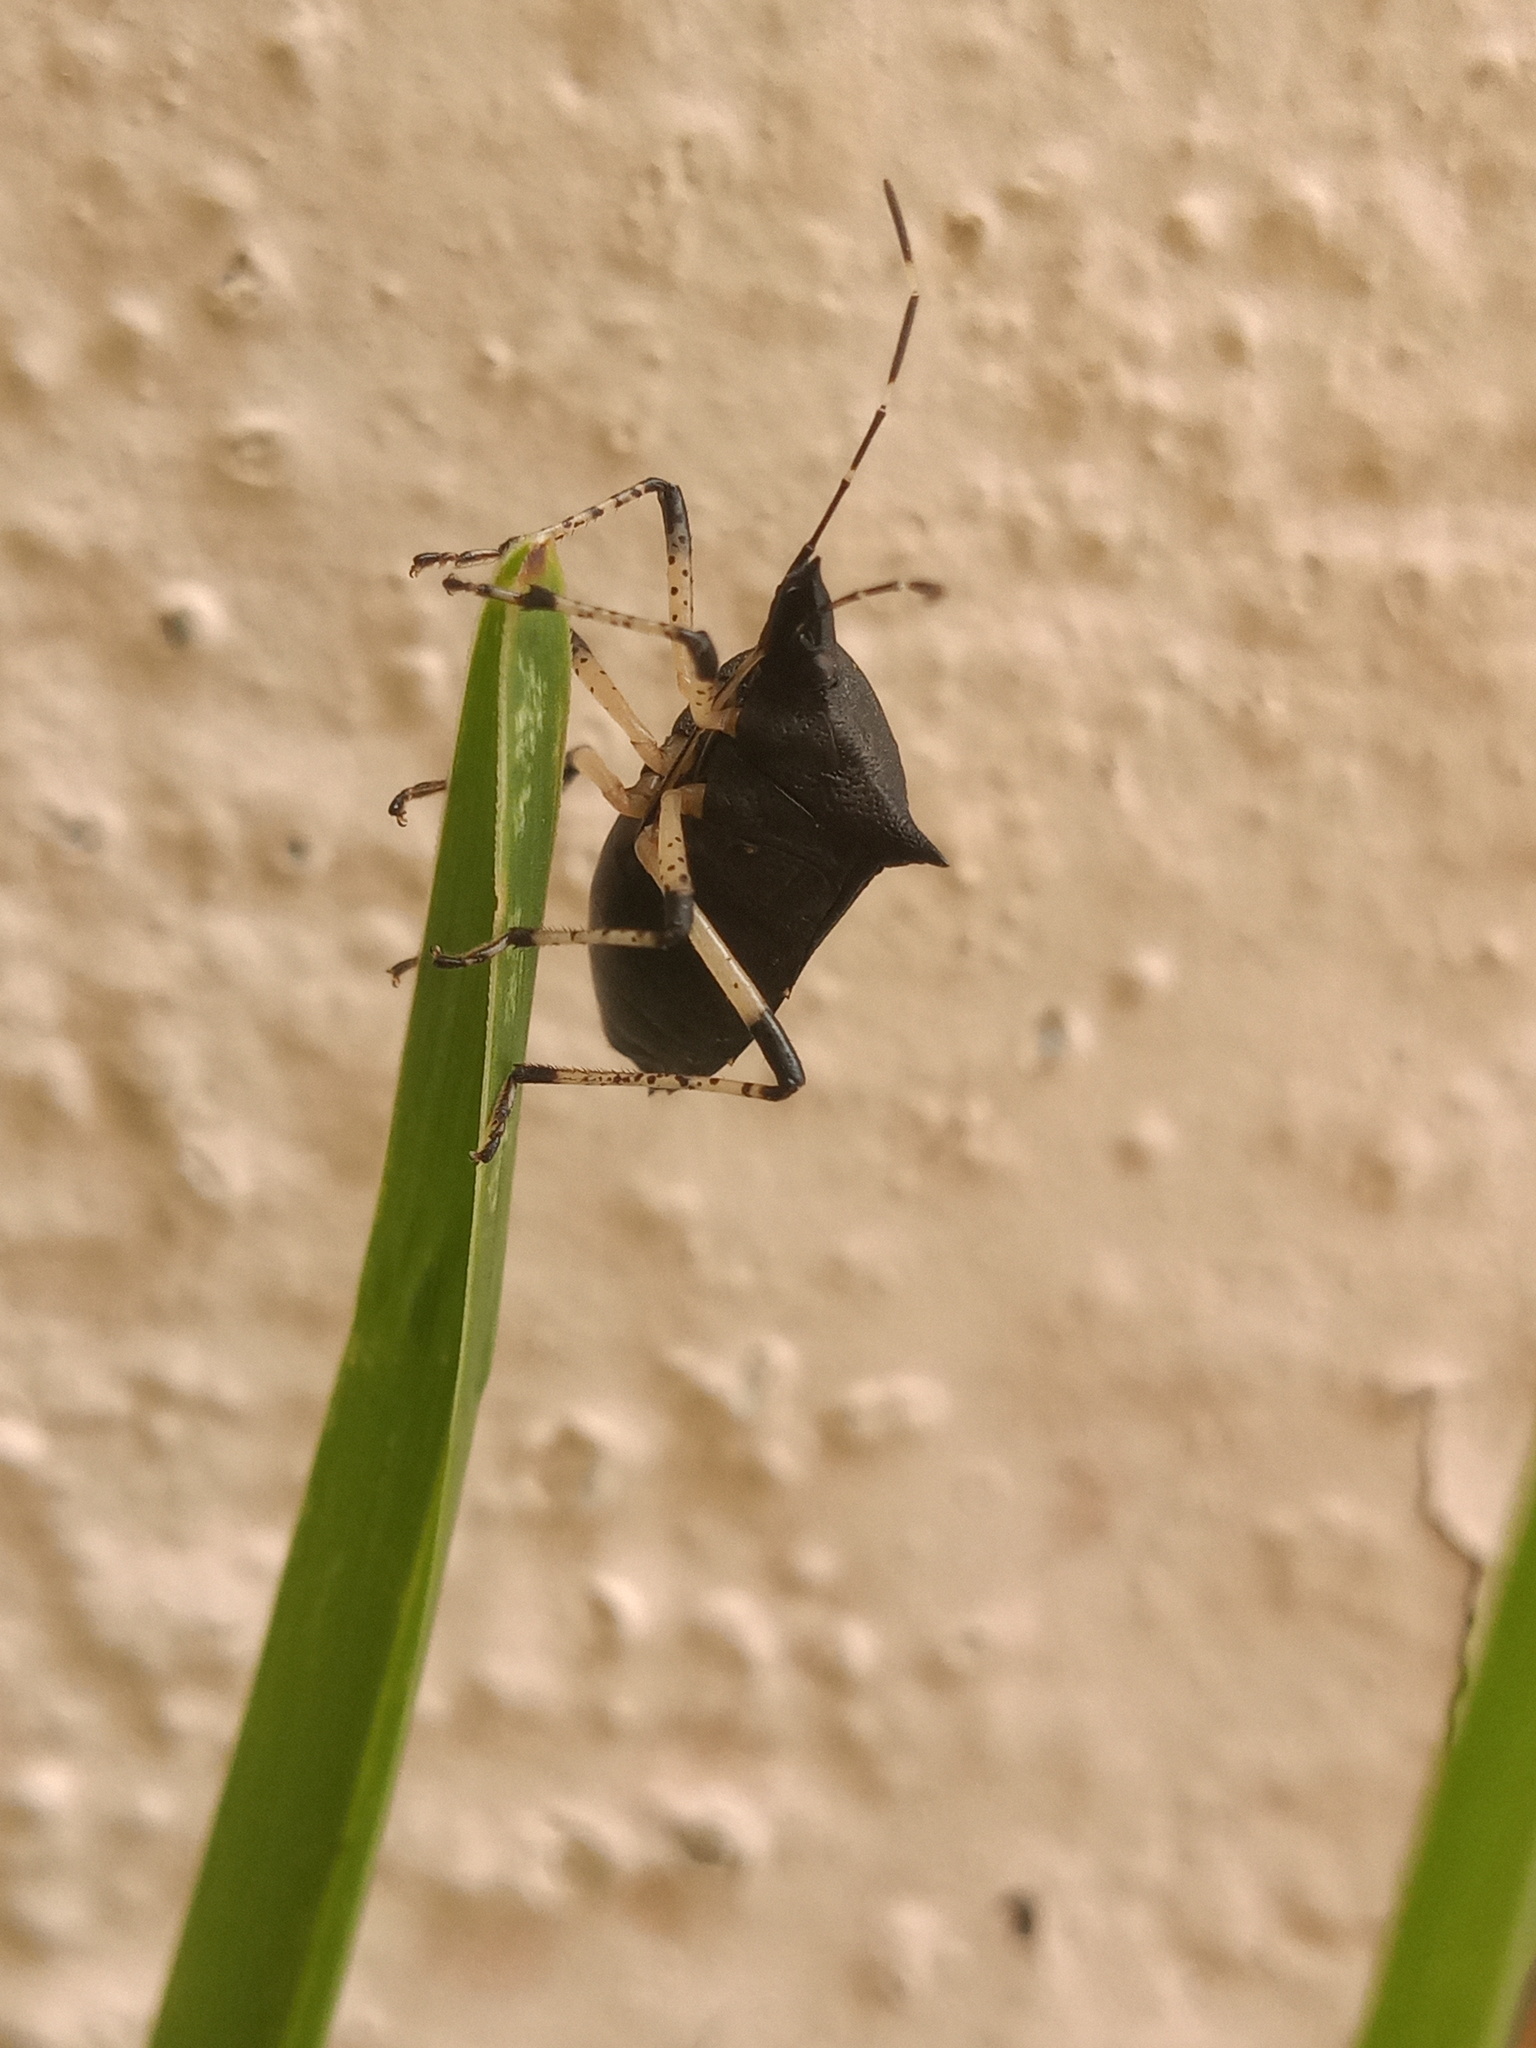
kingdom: Animalia
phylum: Arthropoda
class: Insecta
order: Hemiptera
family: Pentatomidae
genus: Proxys
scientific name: Proxys punctulatus
